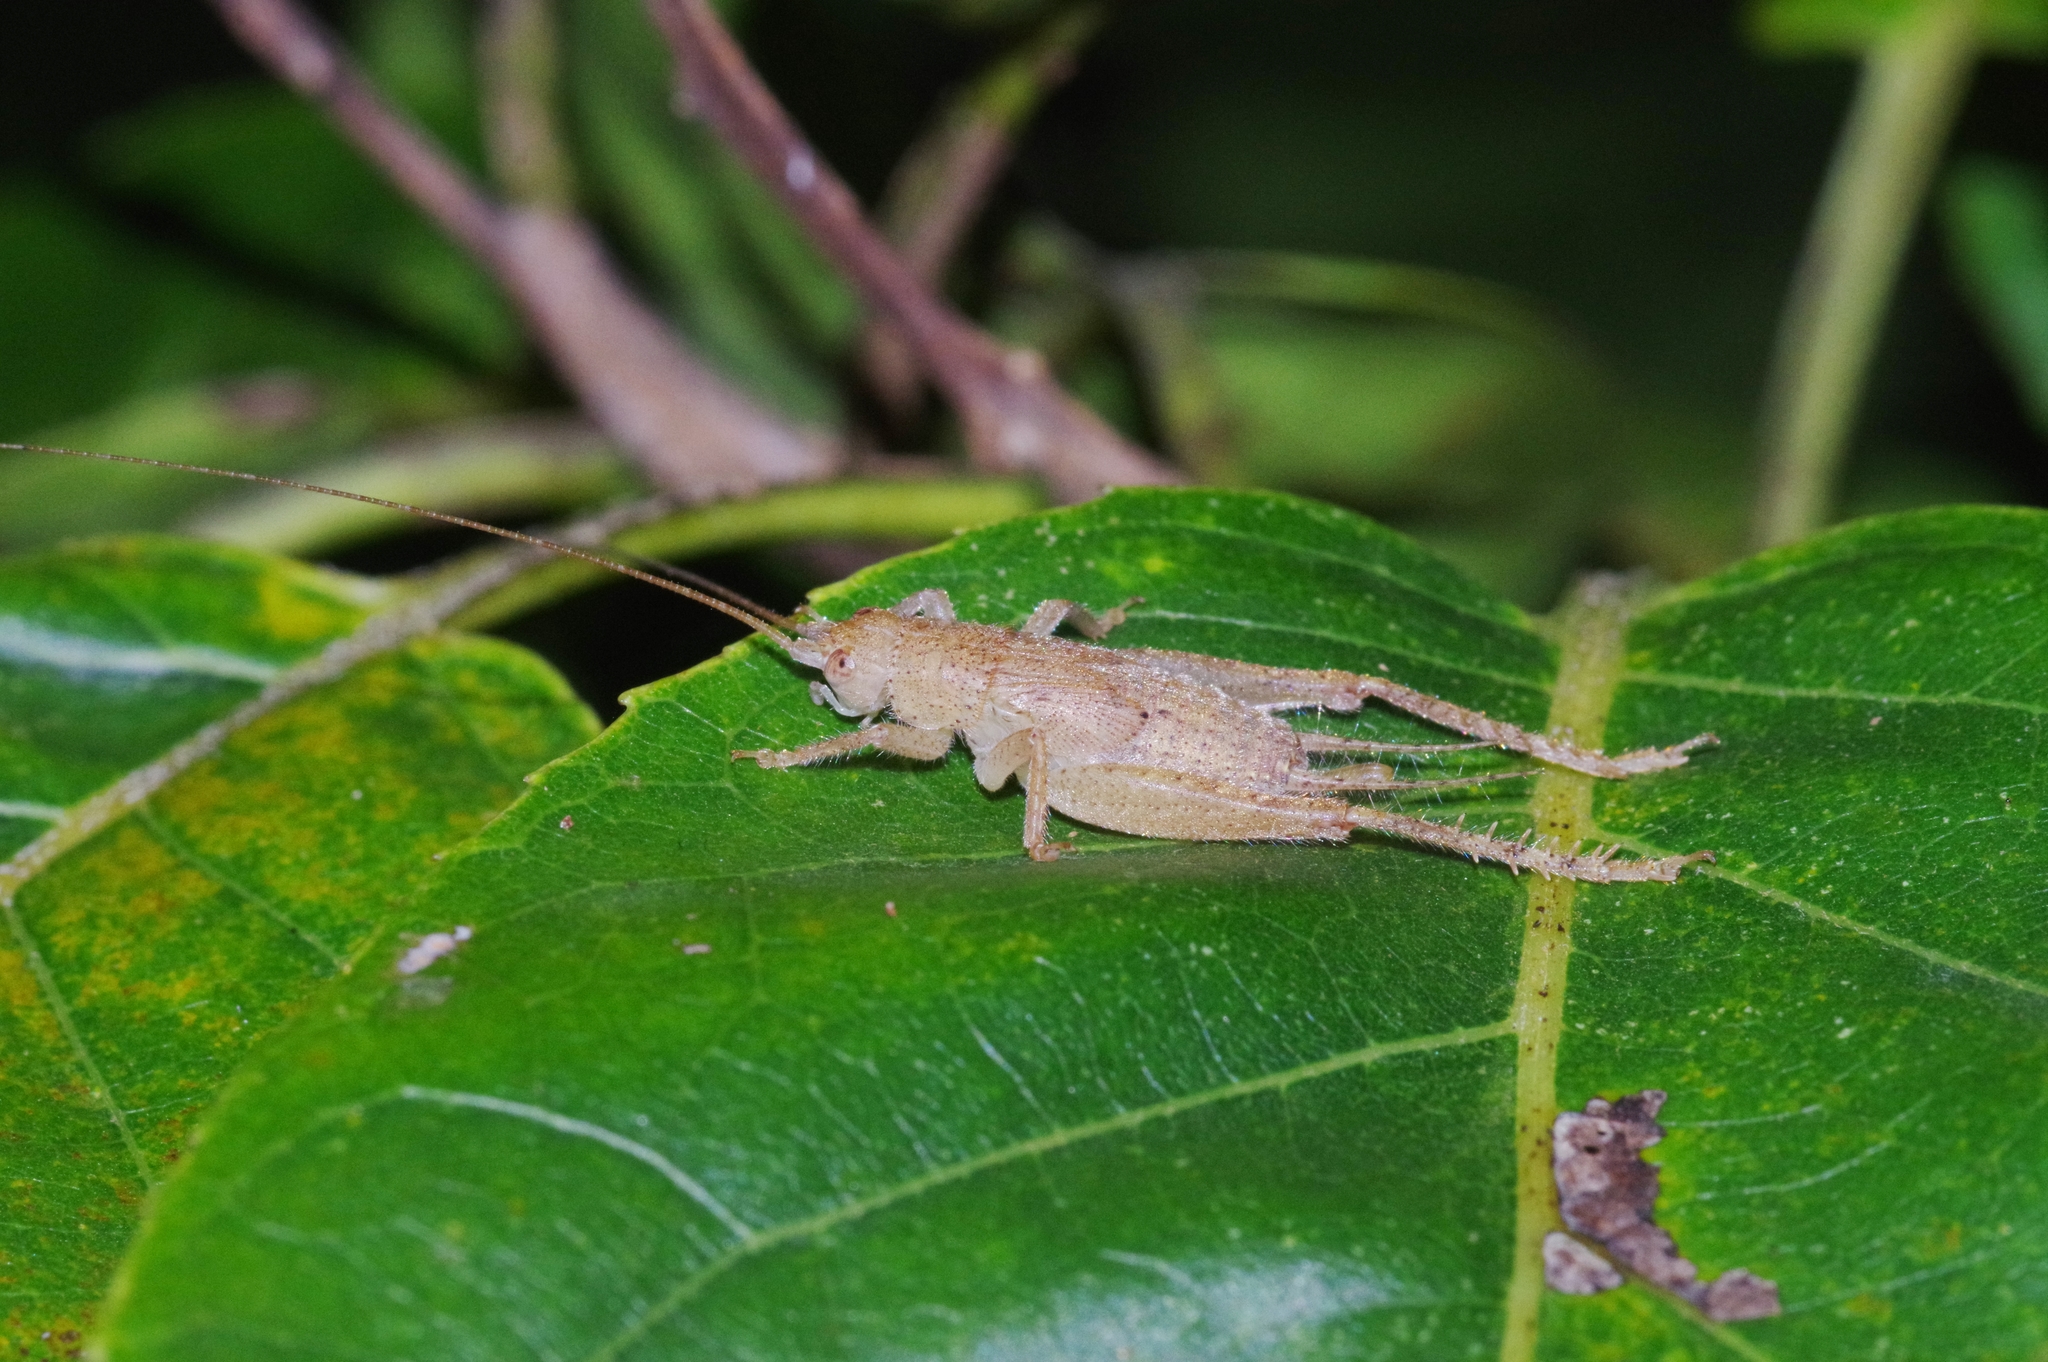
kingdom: Animalia
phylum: Arthropoda
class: Insecta
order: Orthoptera
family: Gryllidae
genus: Aphonoides
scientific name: Aphonoides rufescens
